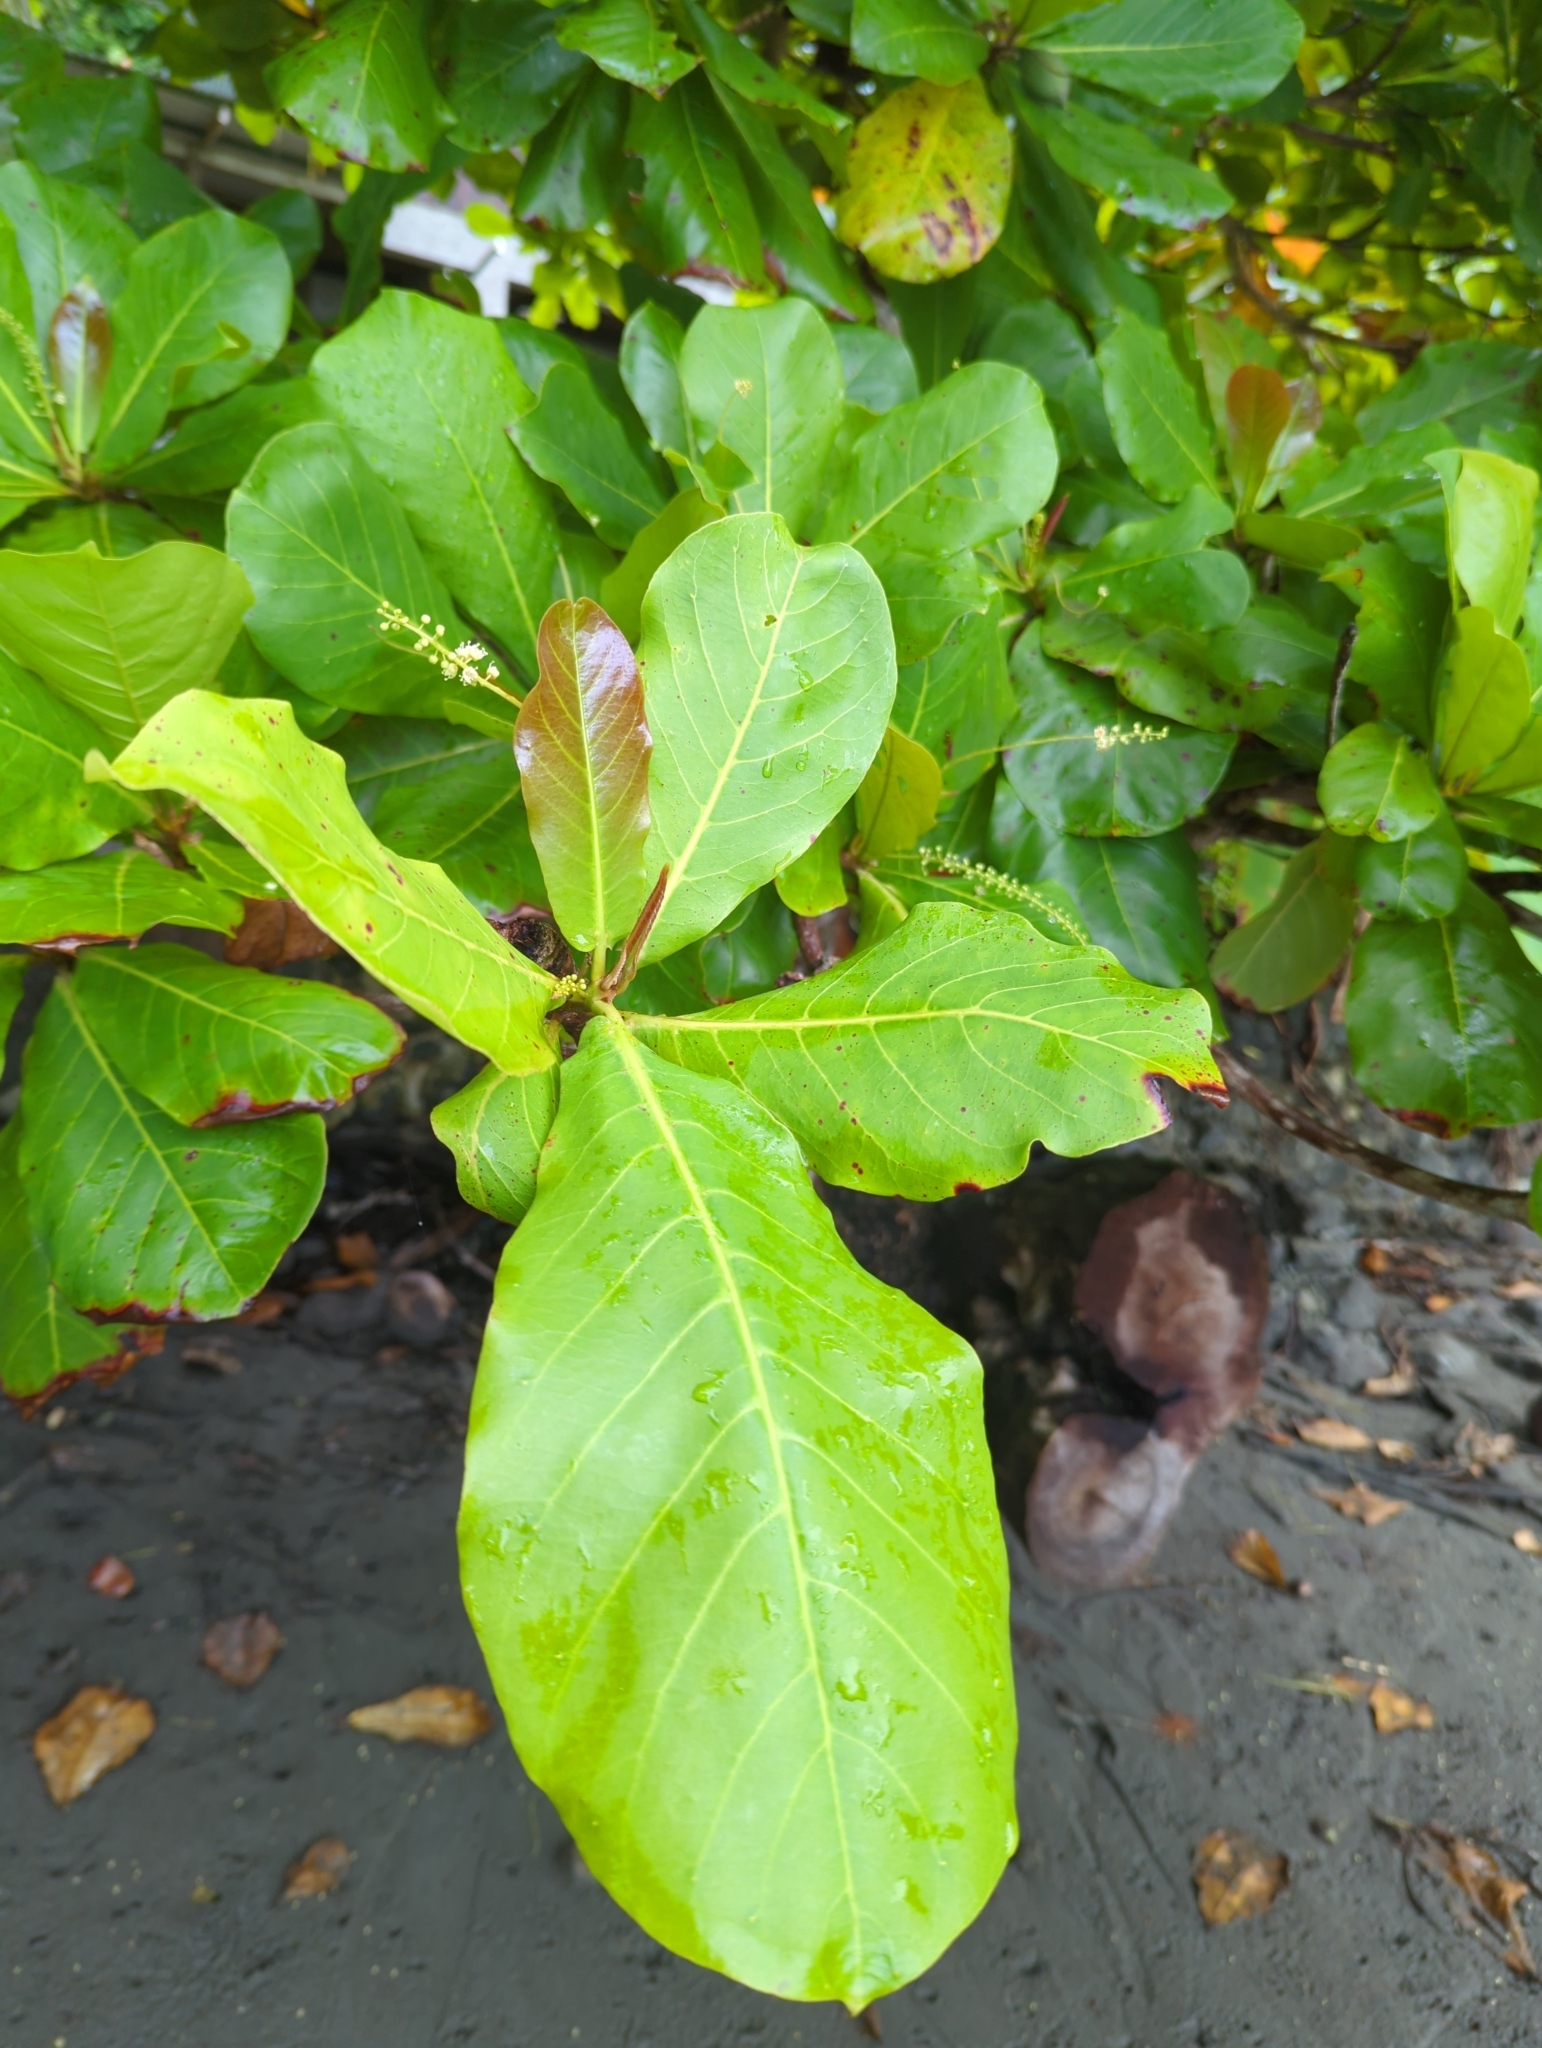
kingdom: Plantae
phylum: Tracheophyta
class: Magnoliopsida
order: Myrtales
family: Combretaceae
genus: Terminalia
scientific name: Terminalia catappa
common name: Tropical almond
